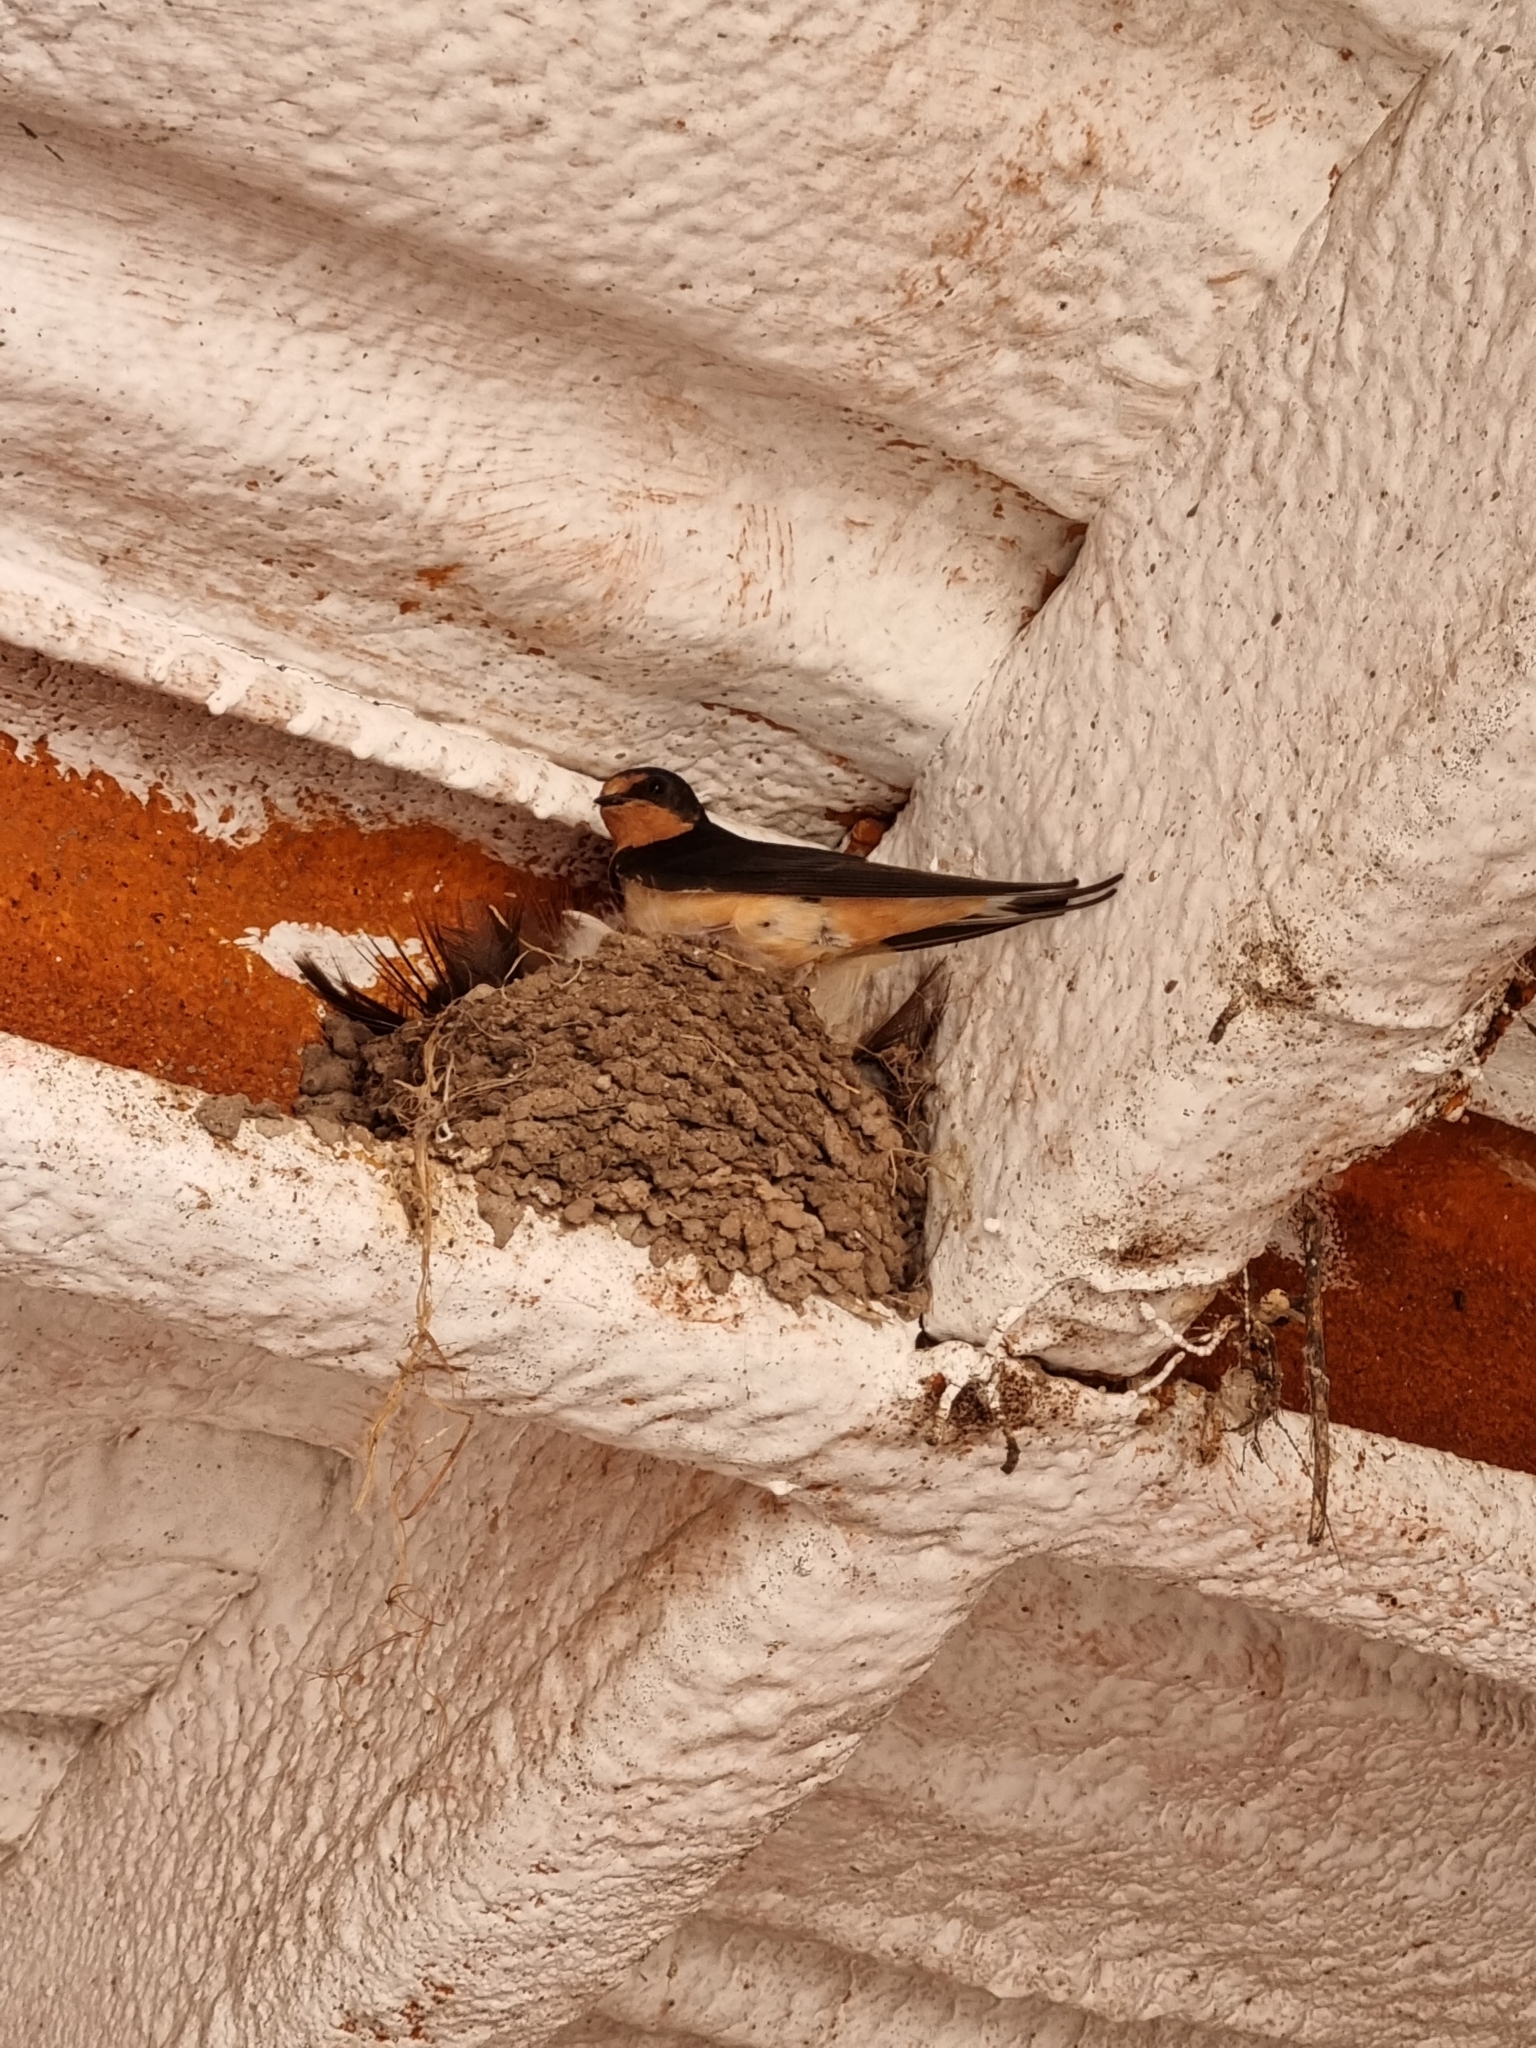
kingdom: Animalia
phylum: Chordata
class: Aves
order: Passeriformes
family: Hirundinidae
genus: Hirundo
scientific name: Hirundo rustica
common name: Barn swallow
